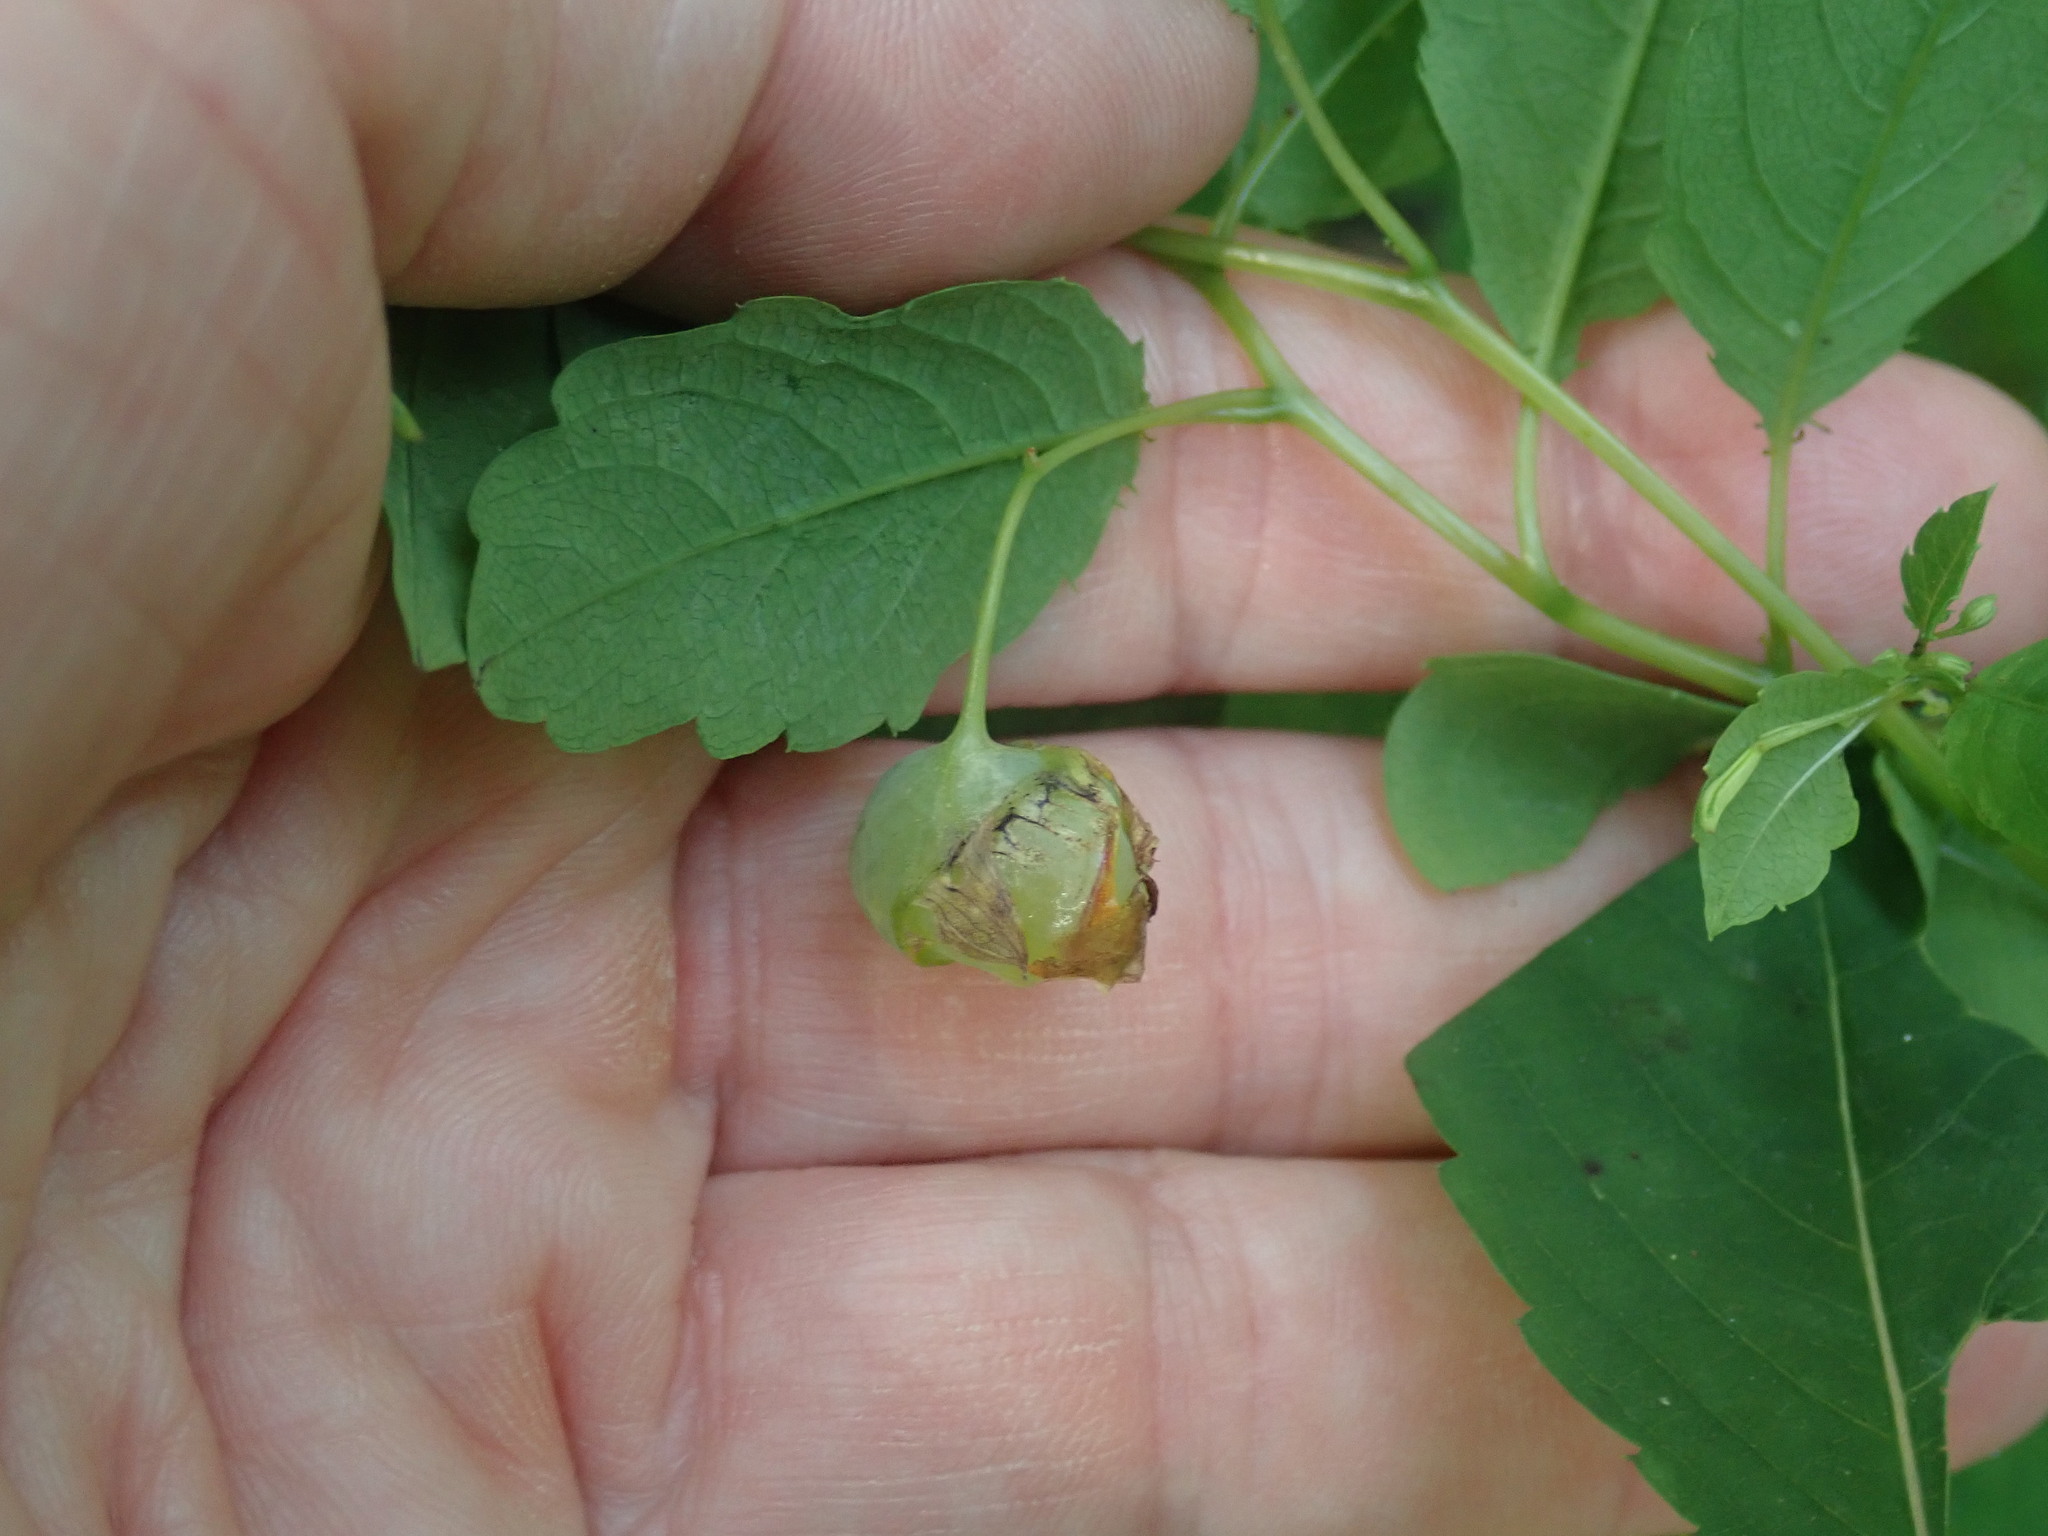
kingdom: Animalia
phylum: Arthropoda
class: Insecta
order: Diptera
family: Cecidomyiidae
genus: Schizomyia
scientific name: Schizomyia impatientis
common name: Jewelweed gall midge
